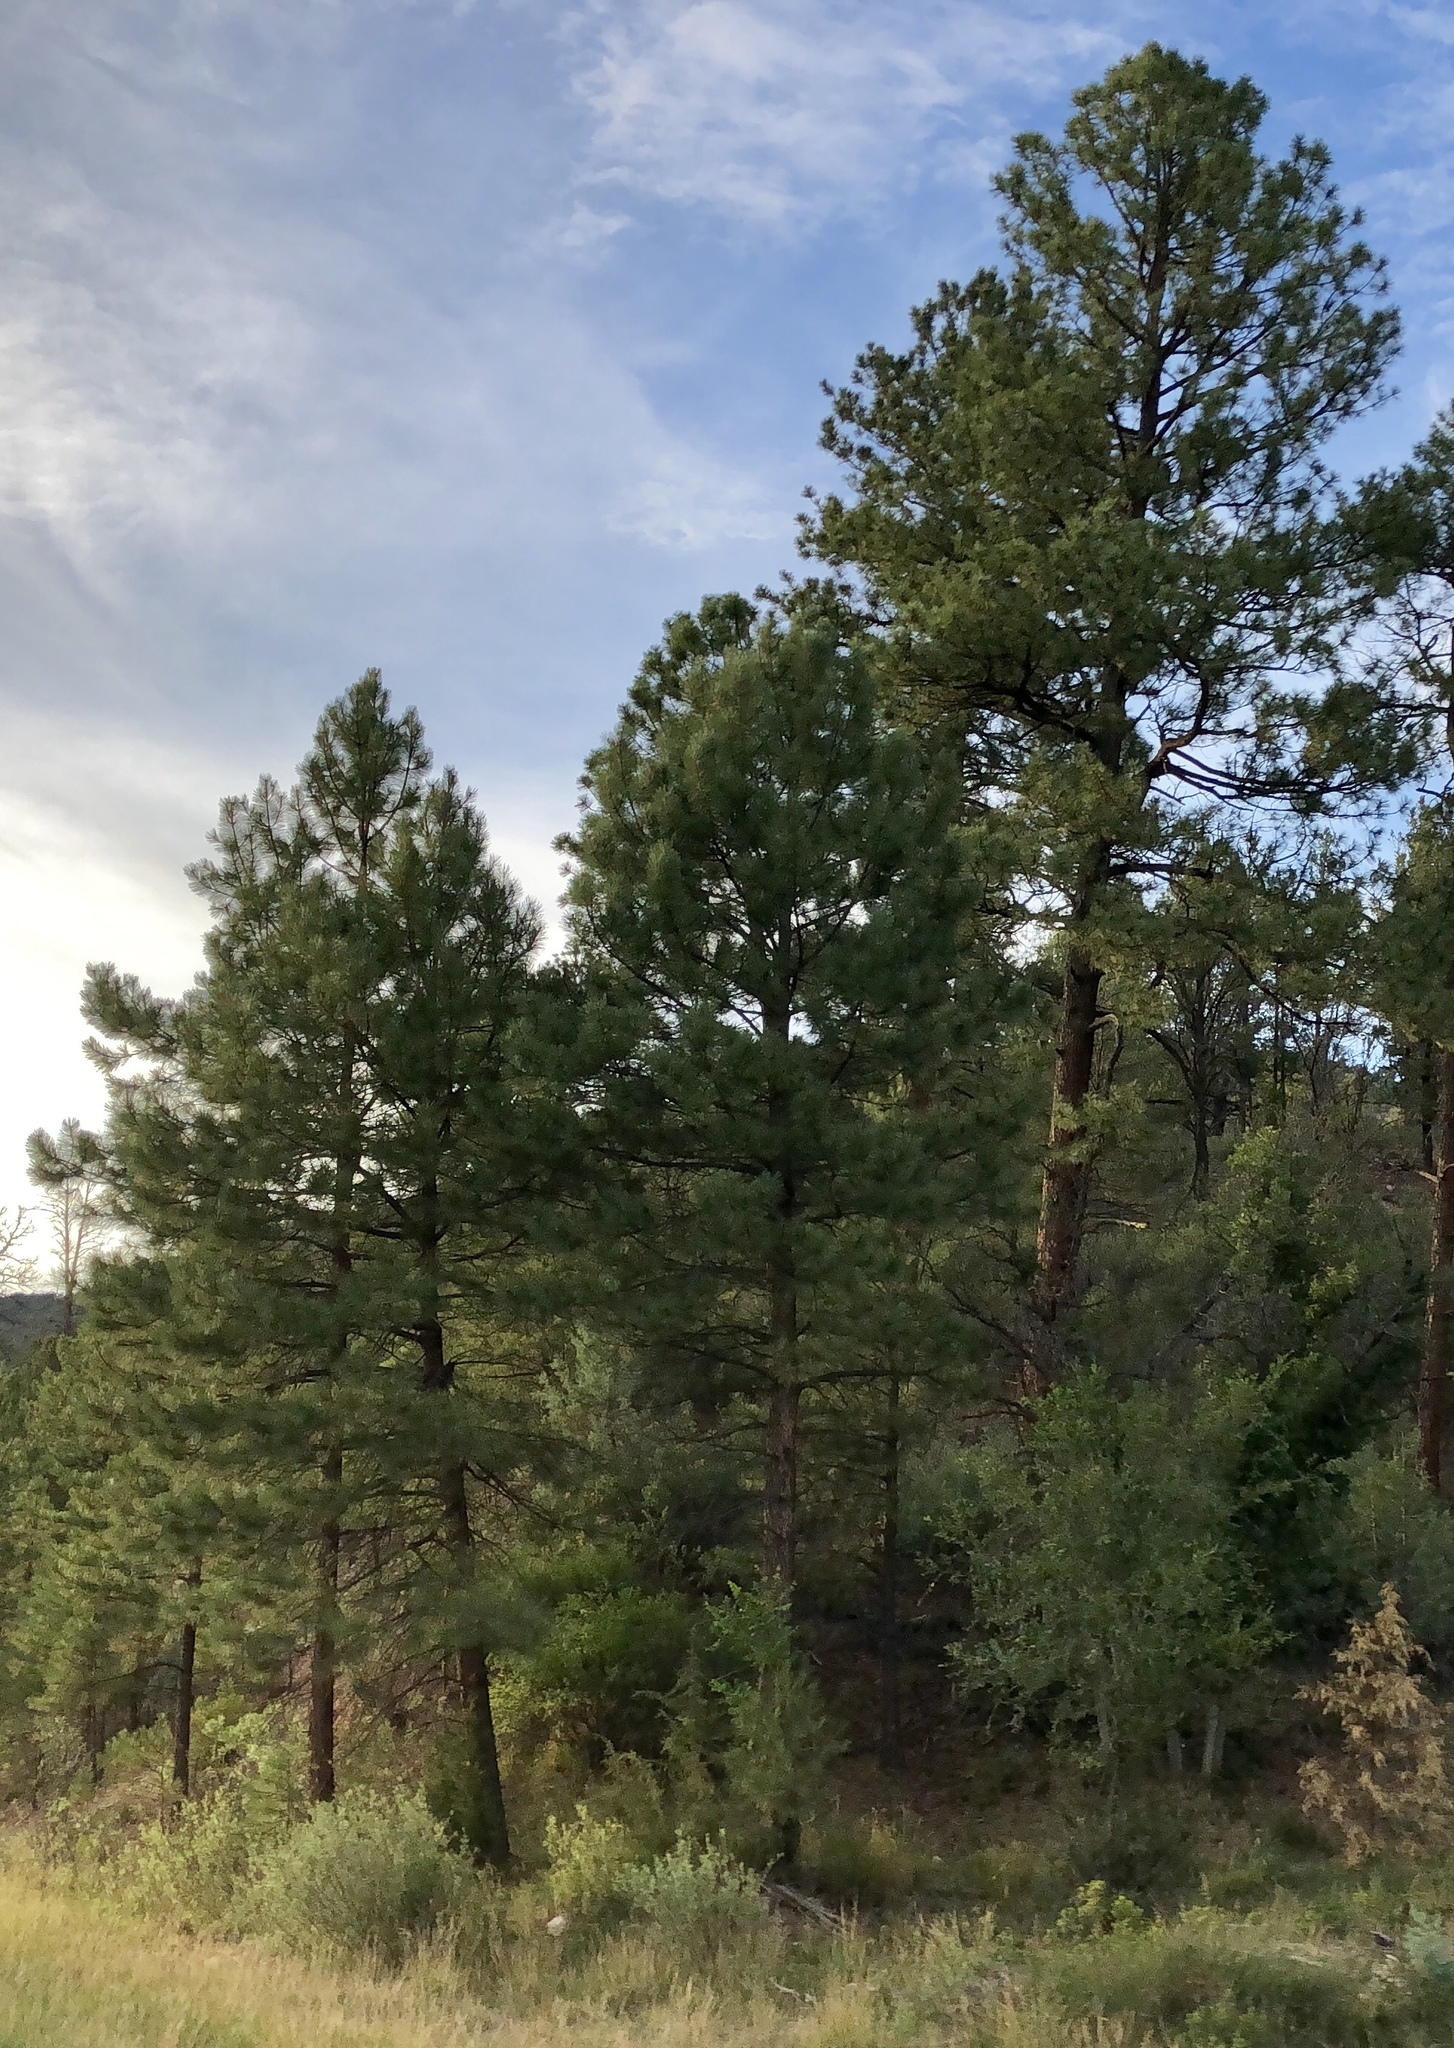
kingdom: Plantae
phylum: Tracheophyta
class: Pinopsida
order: Pinales
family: Pinaceae
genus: Pinus
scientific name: Pinus ponderosa
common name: Western yellow-pine
